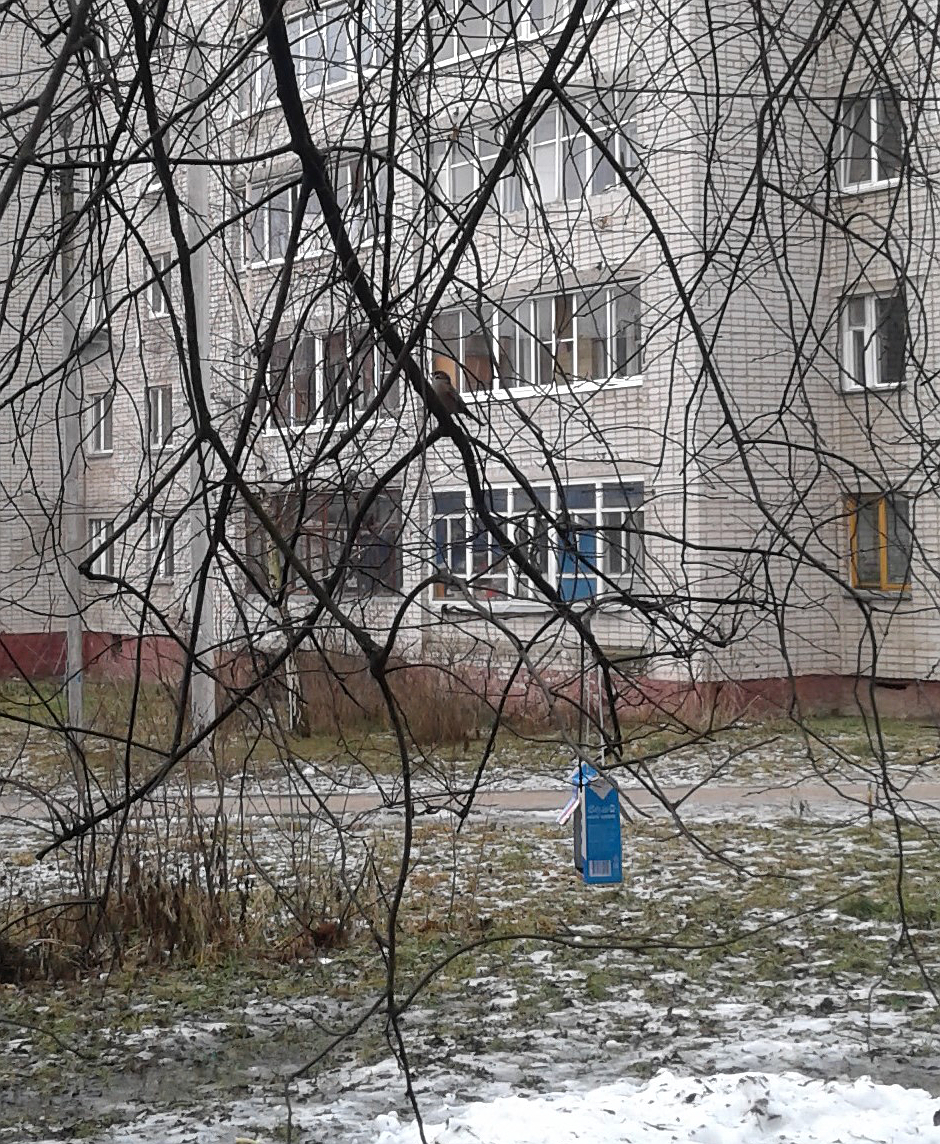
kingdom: Animalia
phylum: Chordata
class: Aves
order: Passeriformes
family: Passeridae
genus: Passer
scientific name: Passer montanus
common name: Eurasian tree sparrow
